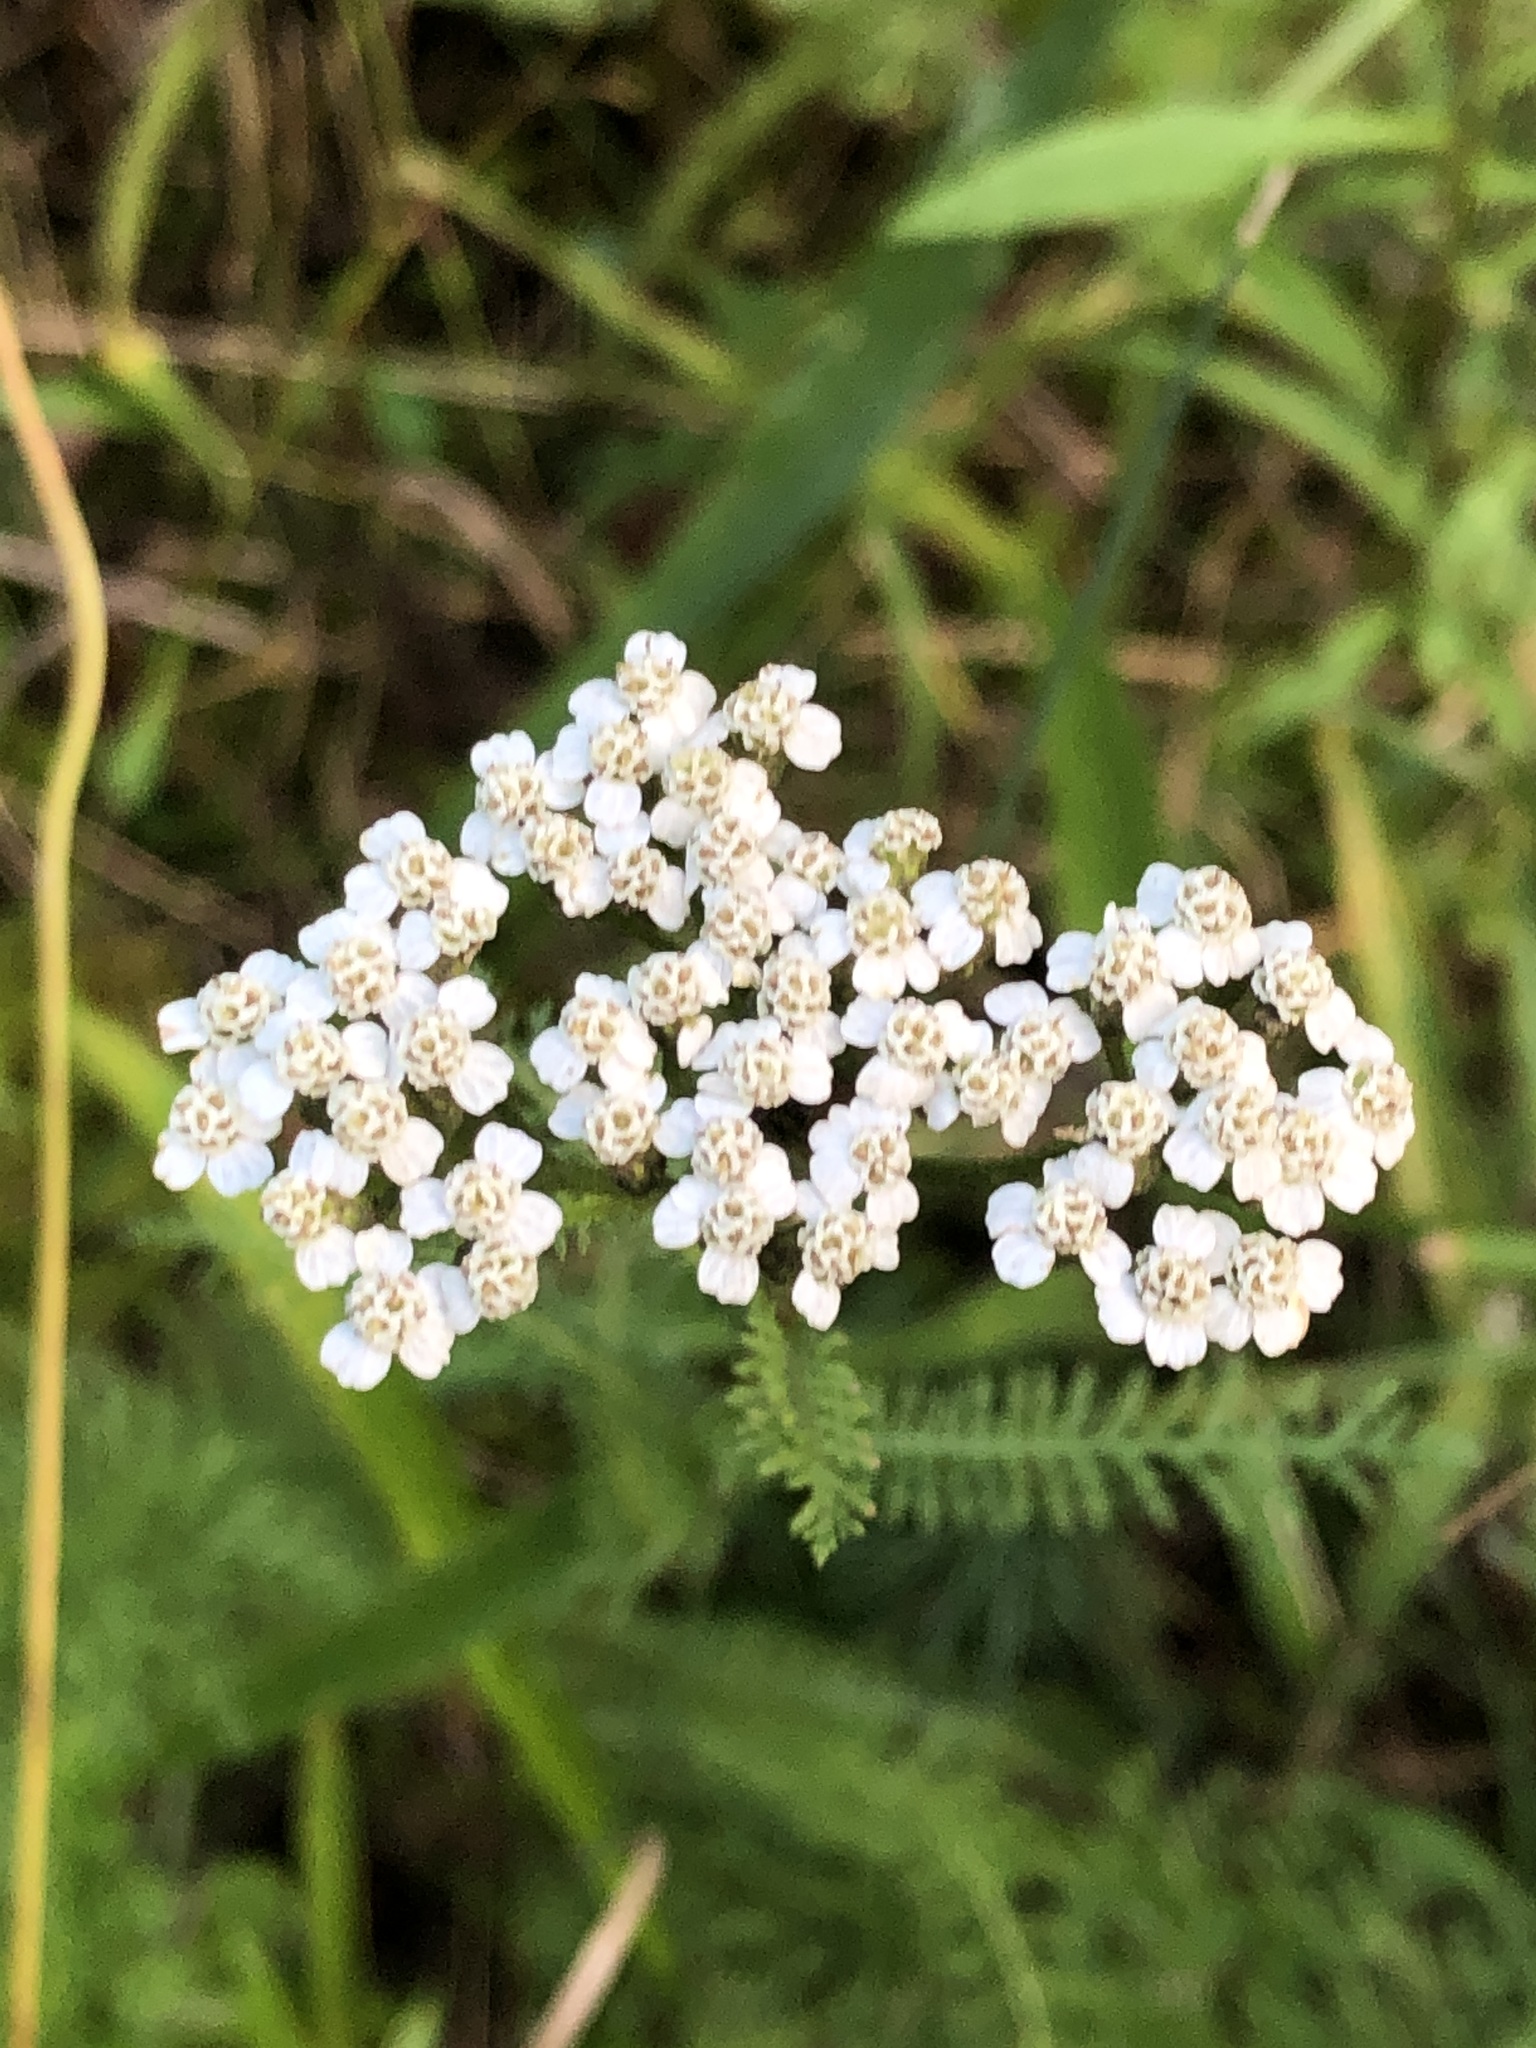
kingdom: Plantae
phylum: Tracheophyta
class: Magnoliopsida
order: Asterales
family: Asteraceae
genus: Achillea
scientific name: Achillea millefolium
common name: Yarrow
